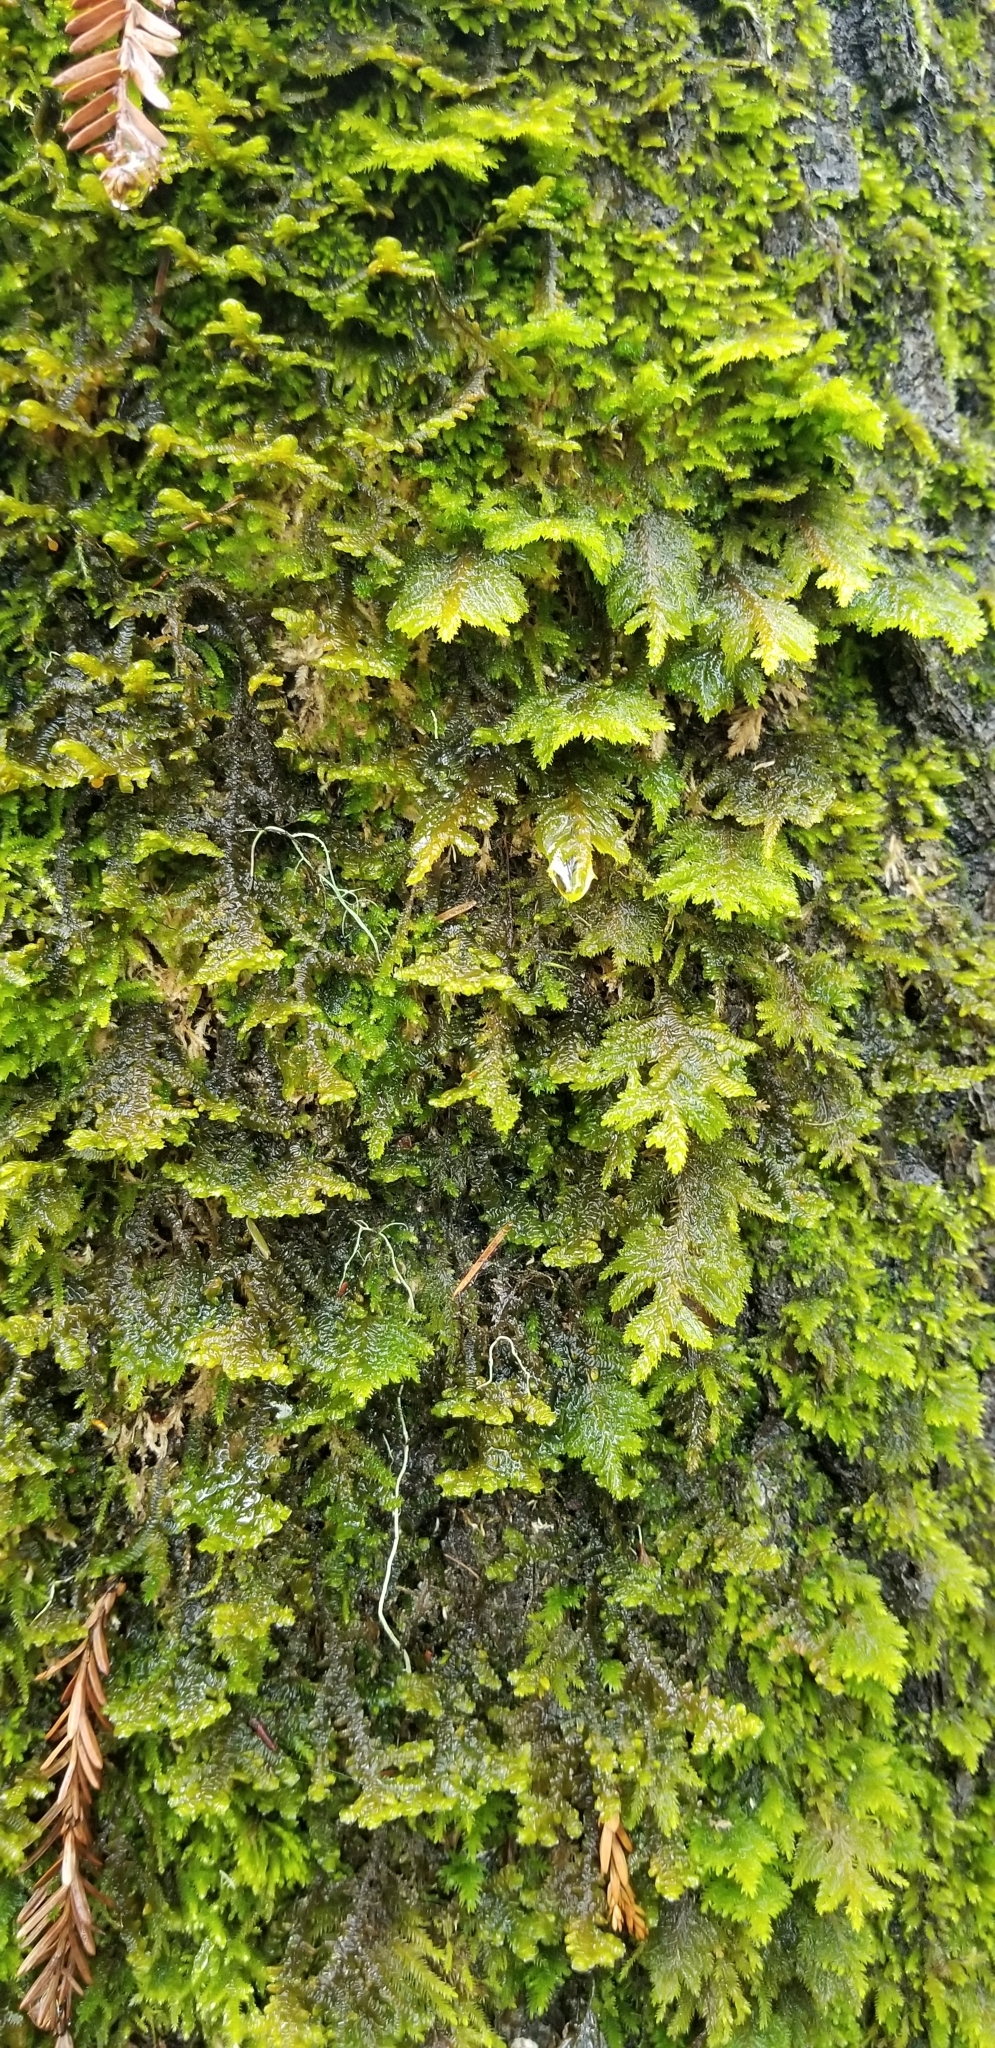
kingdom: Plantae
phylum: Bryophyta
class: Bryopsida
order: Hypnales
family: Cryphaeaceae
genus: Dendroalsia
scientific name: Dendroalsia abietina
